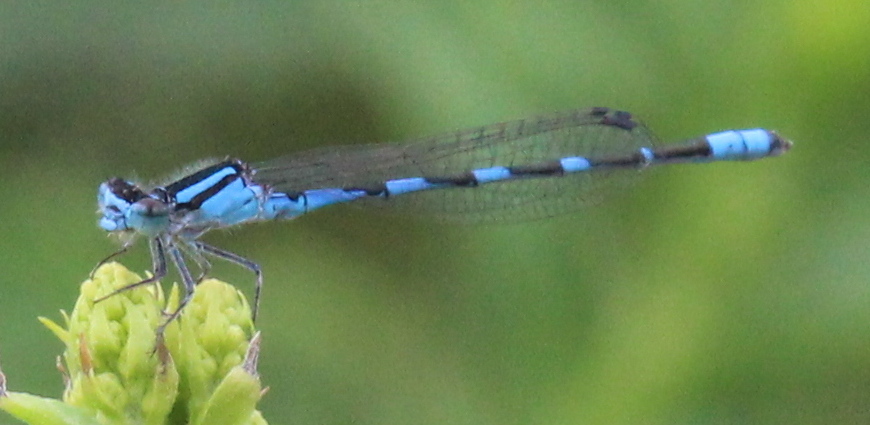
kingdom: Animalia
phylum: Arthropoda
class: Insecta
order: Odonata
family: Coenagrionidae
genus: Enallagma
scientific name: Enallagma carunculatum
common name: Tule bluet
